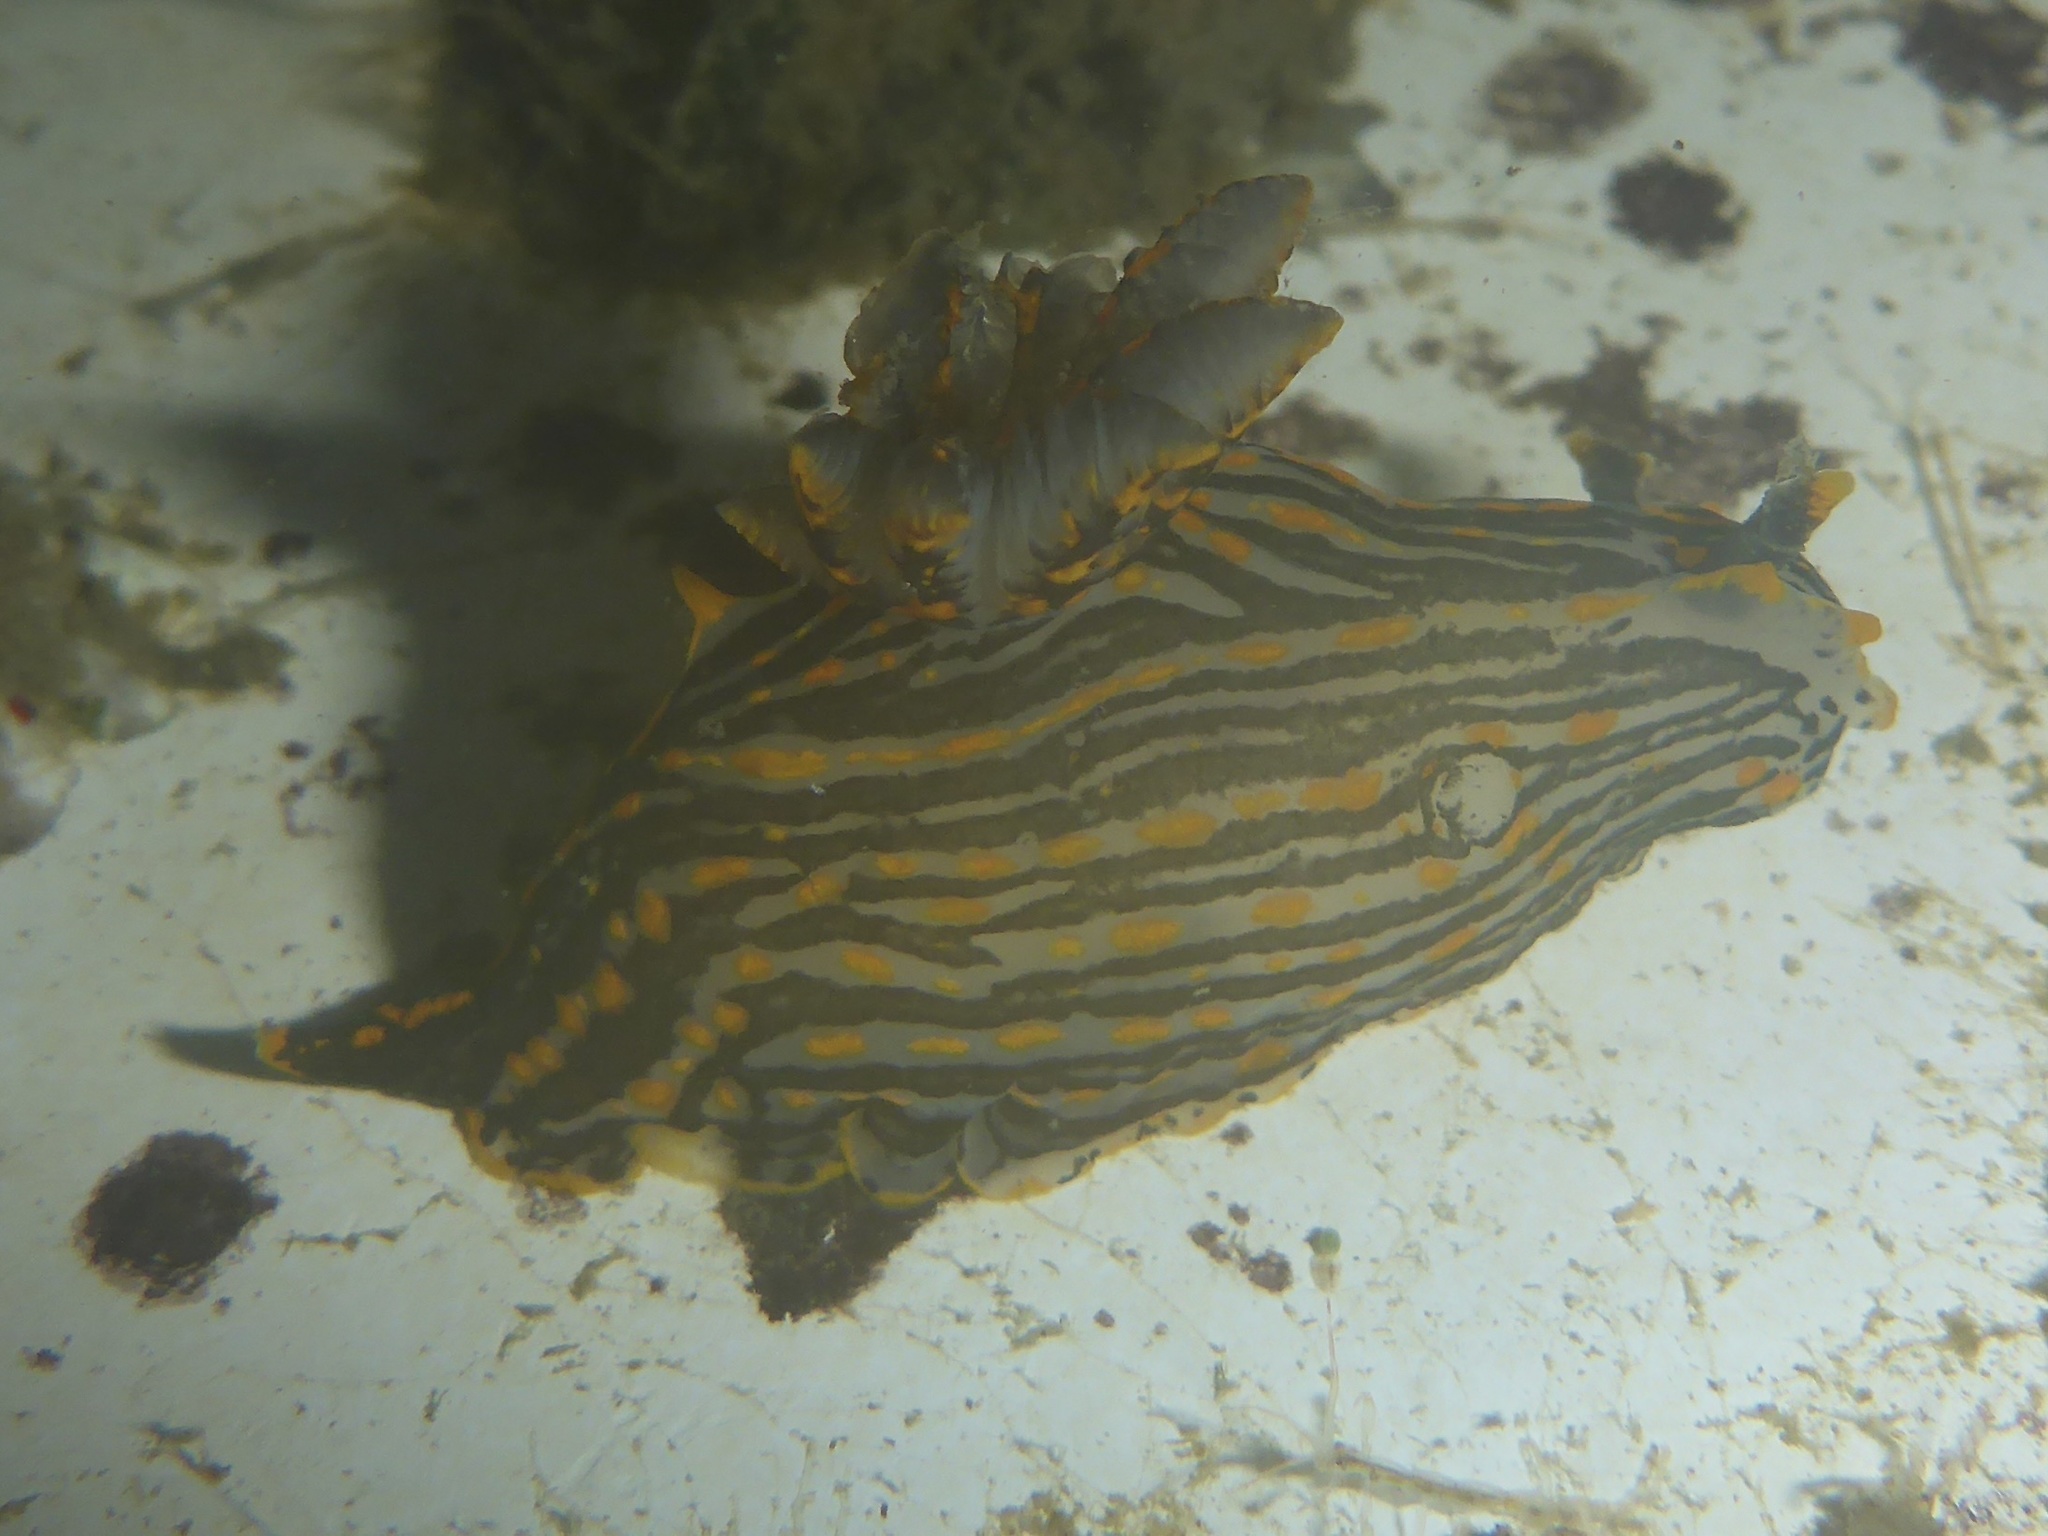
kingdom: Animalia
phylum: Mollusca
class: Gastropoda
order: Nudibranchia
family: Polyceridae
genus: Polycera
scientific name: Polycera atra
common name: Orange-spike polycera
